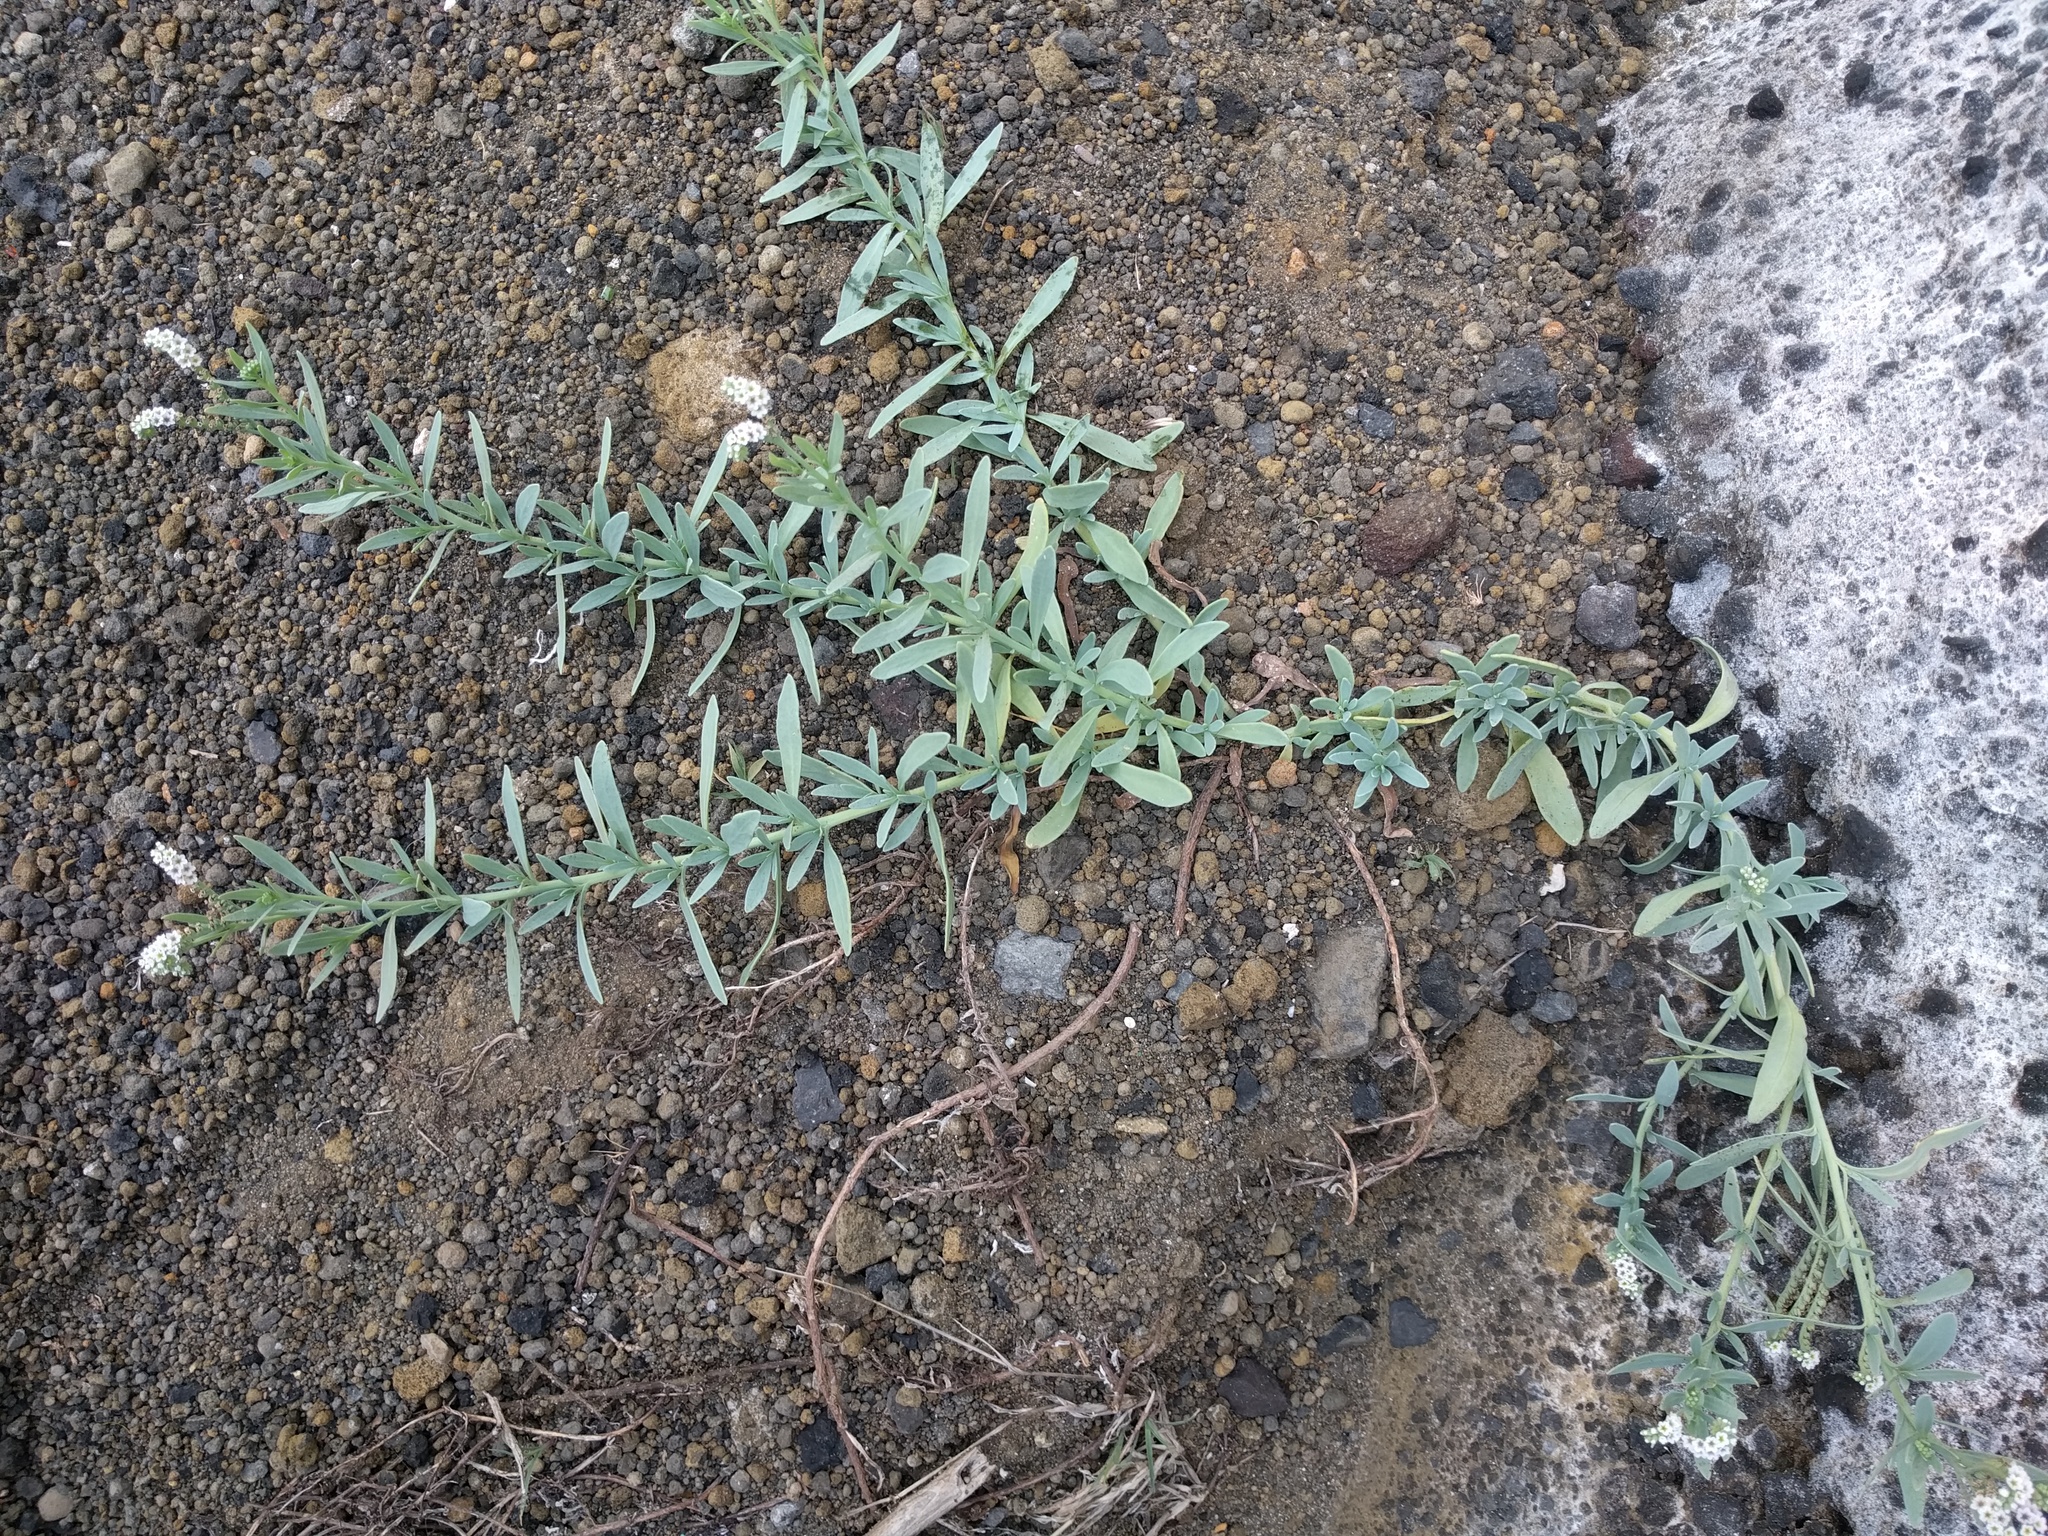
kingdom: Plantae
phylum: Tracheophyta
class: Magnoliopsida
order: Boraginales
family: Heliotropiaceae
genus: Heliotropium
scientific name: Heliotropium curassavicum
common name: Seaside heliotrope
